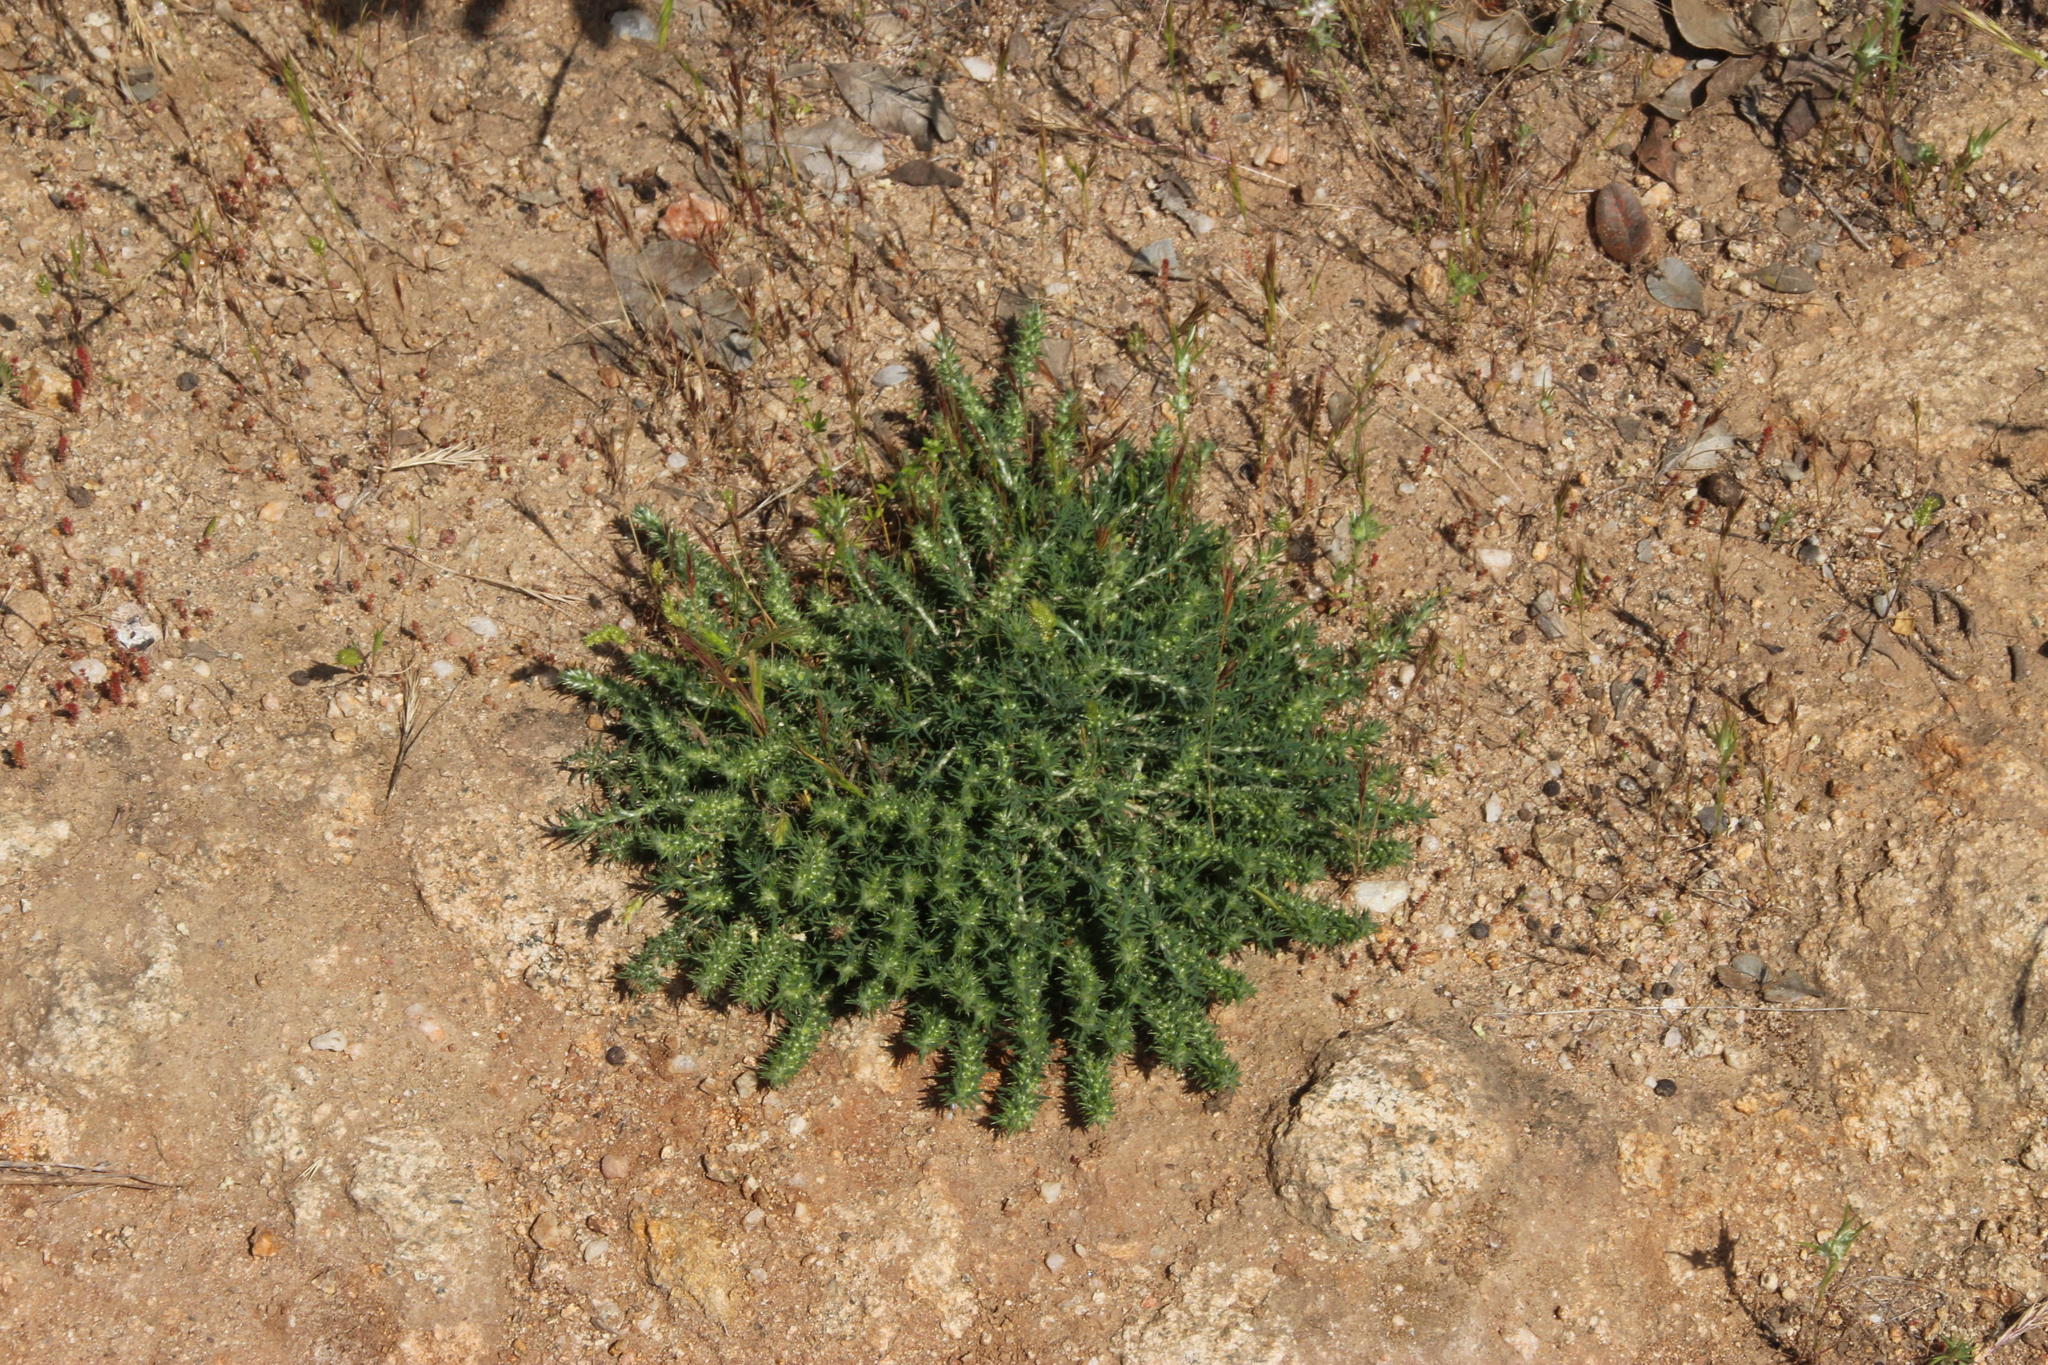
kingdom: Plantae
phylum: Tracheophyta
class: Magnoliopsida
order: Caryophyllales
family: Caryophyllaceae
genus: Cardionema
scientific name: Cardionema ramosissima
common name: Sandcarpet
